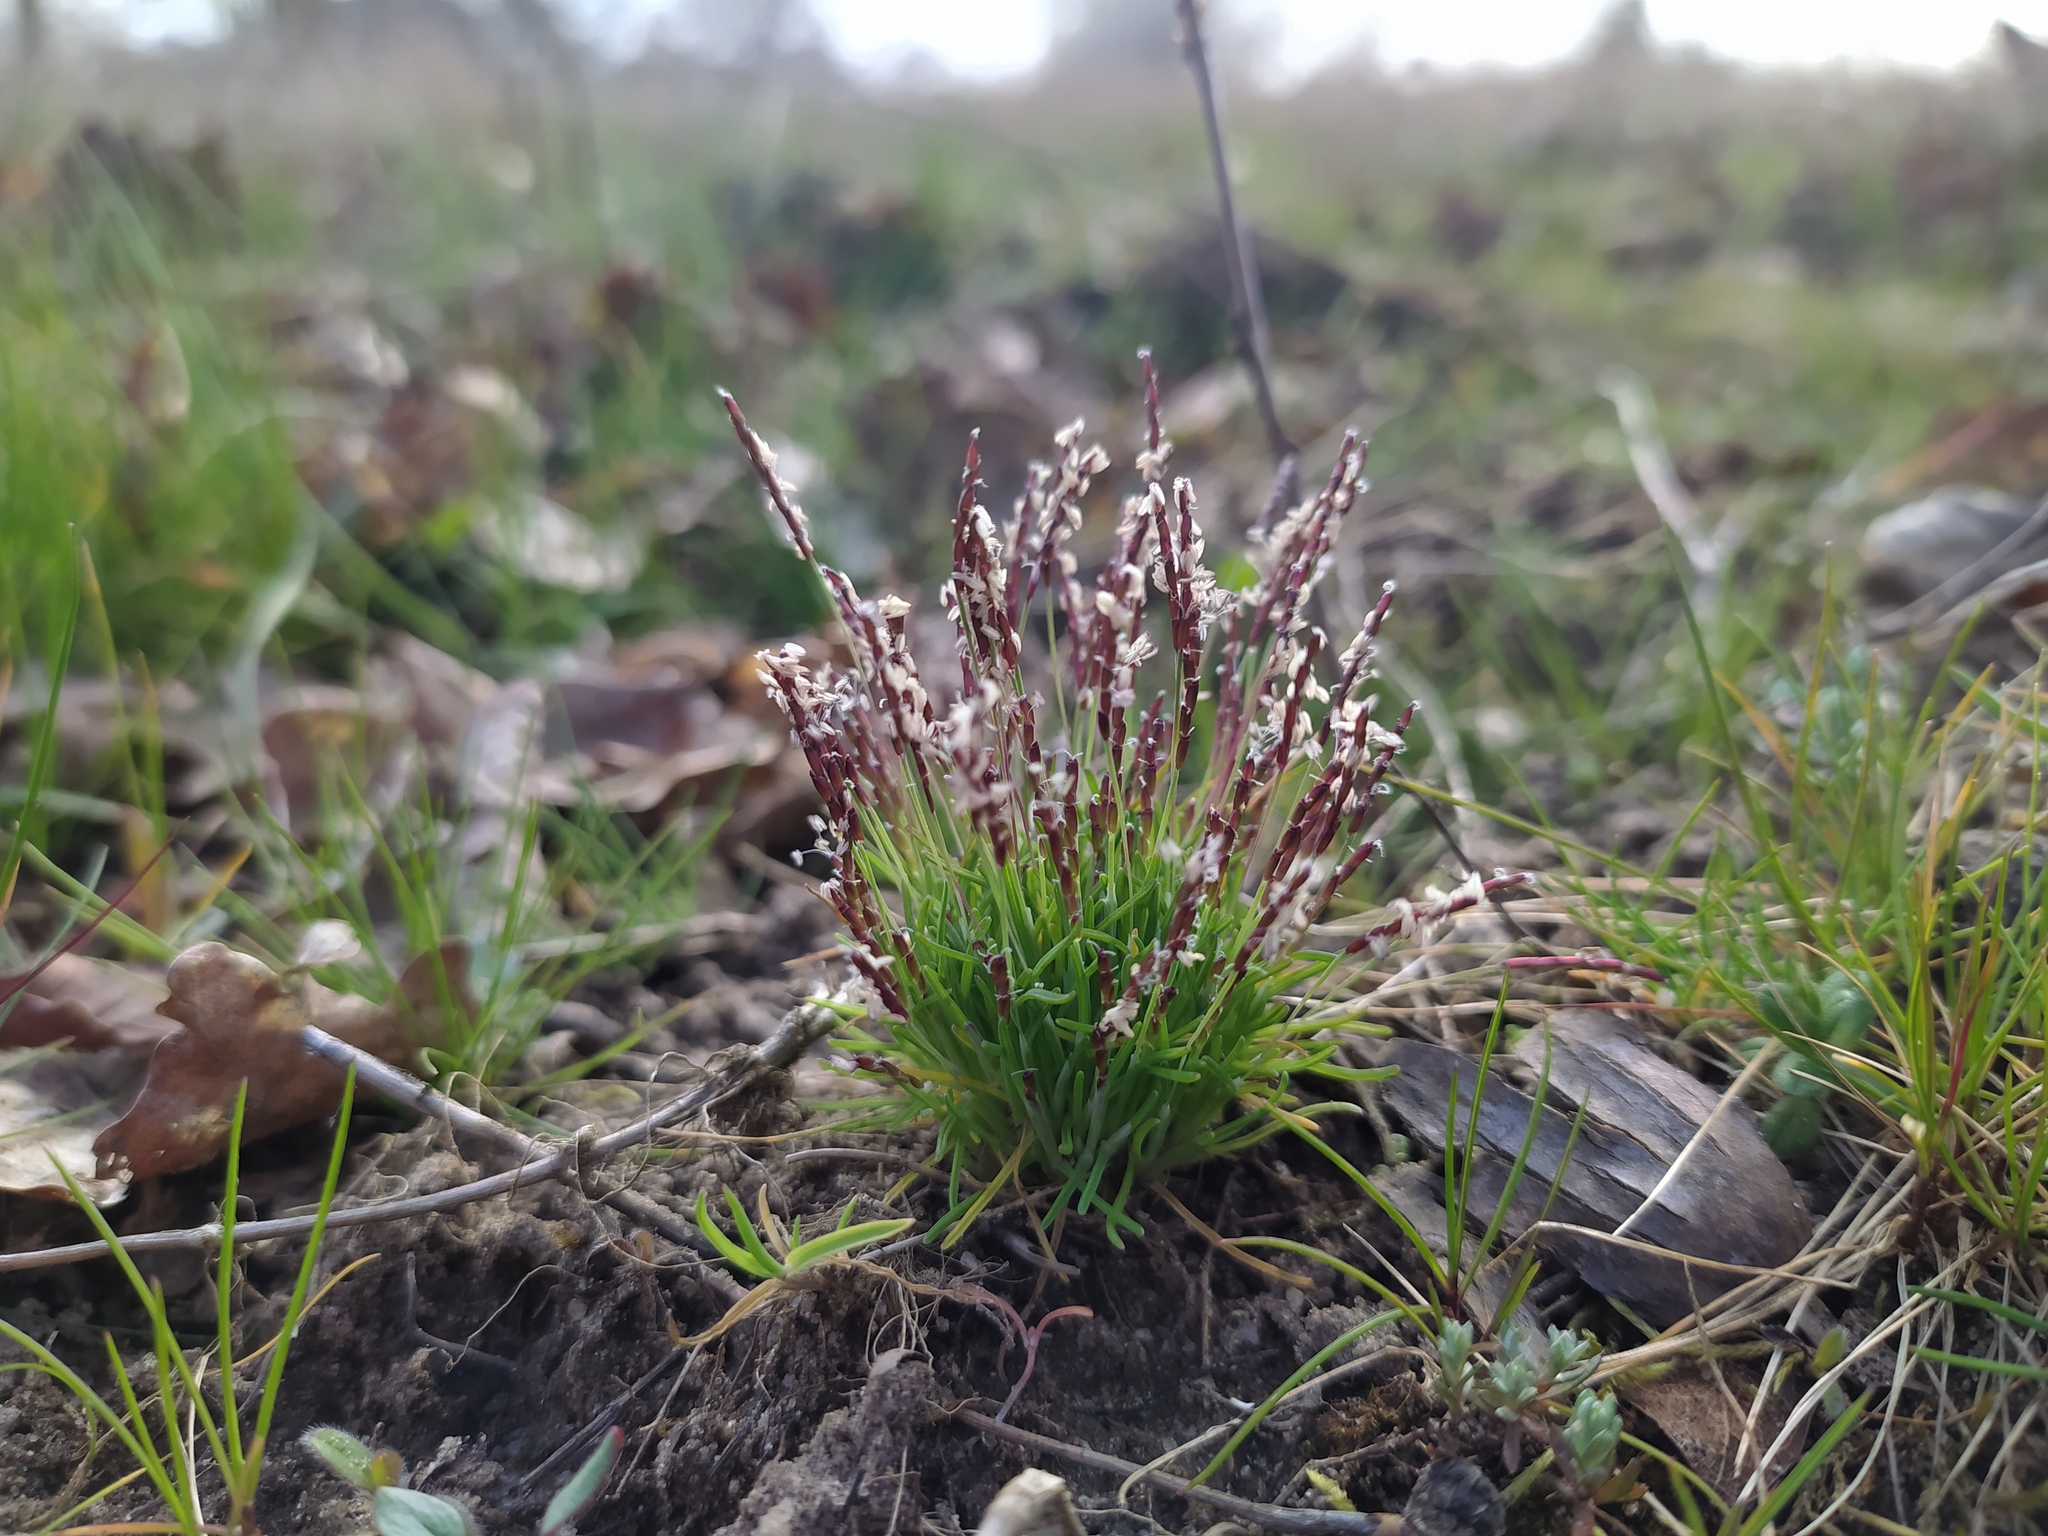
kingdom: Plantae
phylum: Tracheophyta
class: Liliopsida
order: Poales
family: Poaceae
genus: Mibora
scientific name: Mibora minima
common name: Early sand-grass
